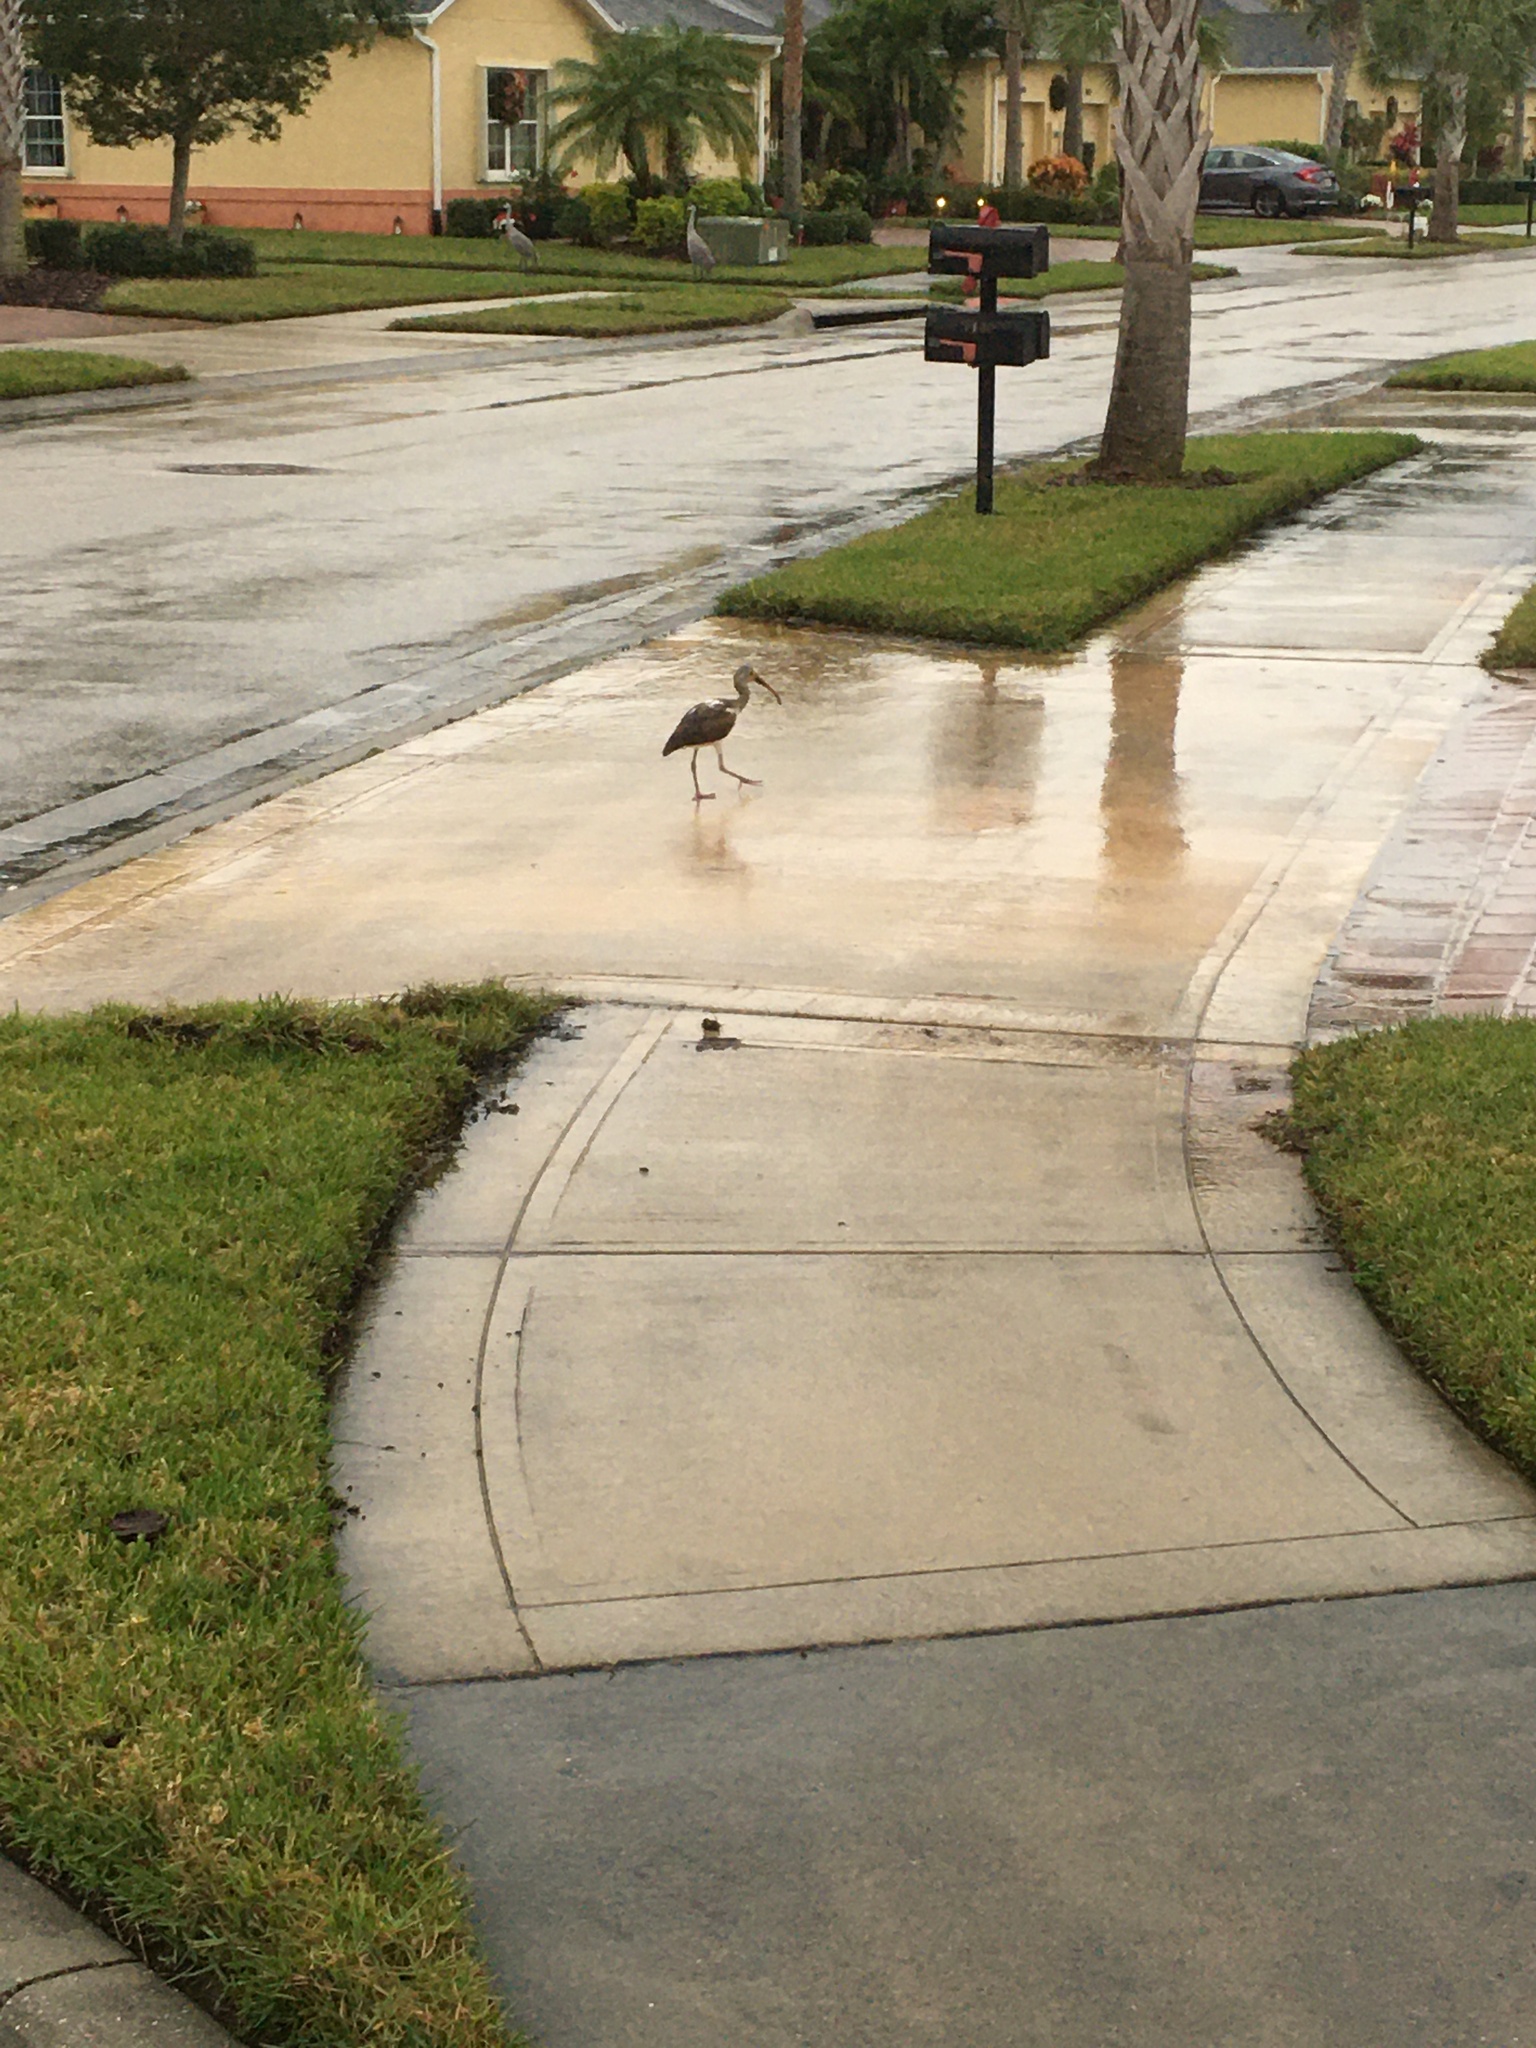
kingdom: Animalia
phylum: Chordata
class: Aves
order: Pelecaniformes
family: Threskiornithidae
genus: Eudocimus
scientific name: Eudocimus albus
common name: White ibis
